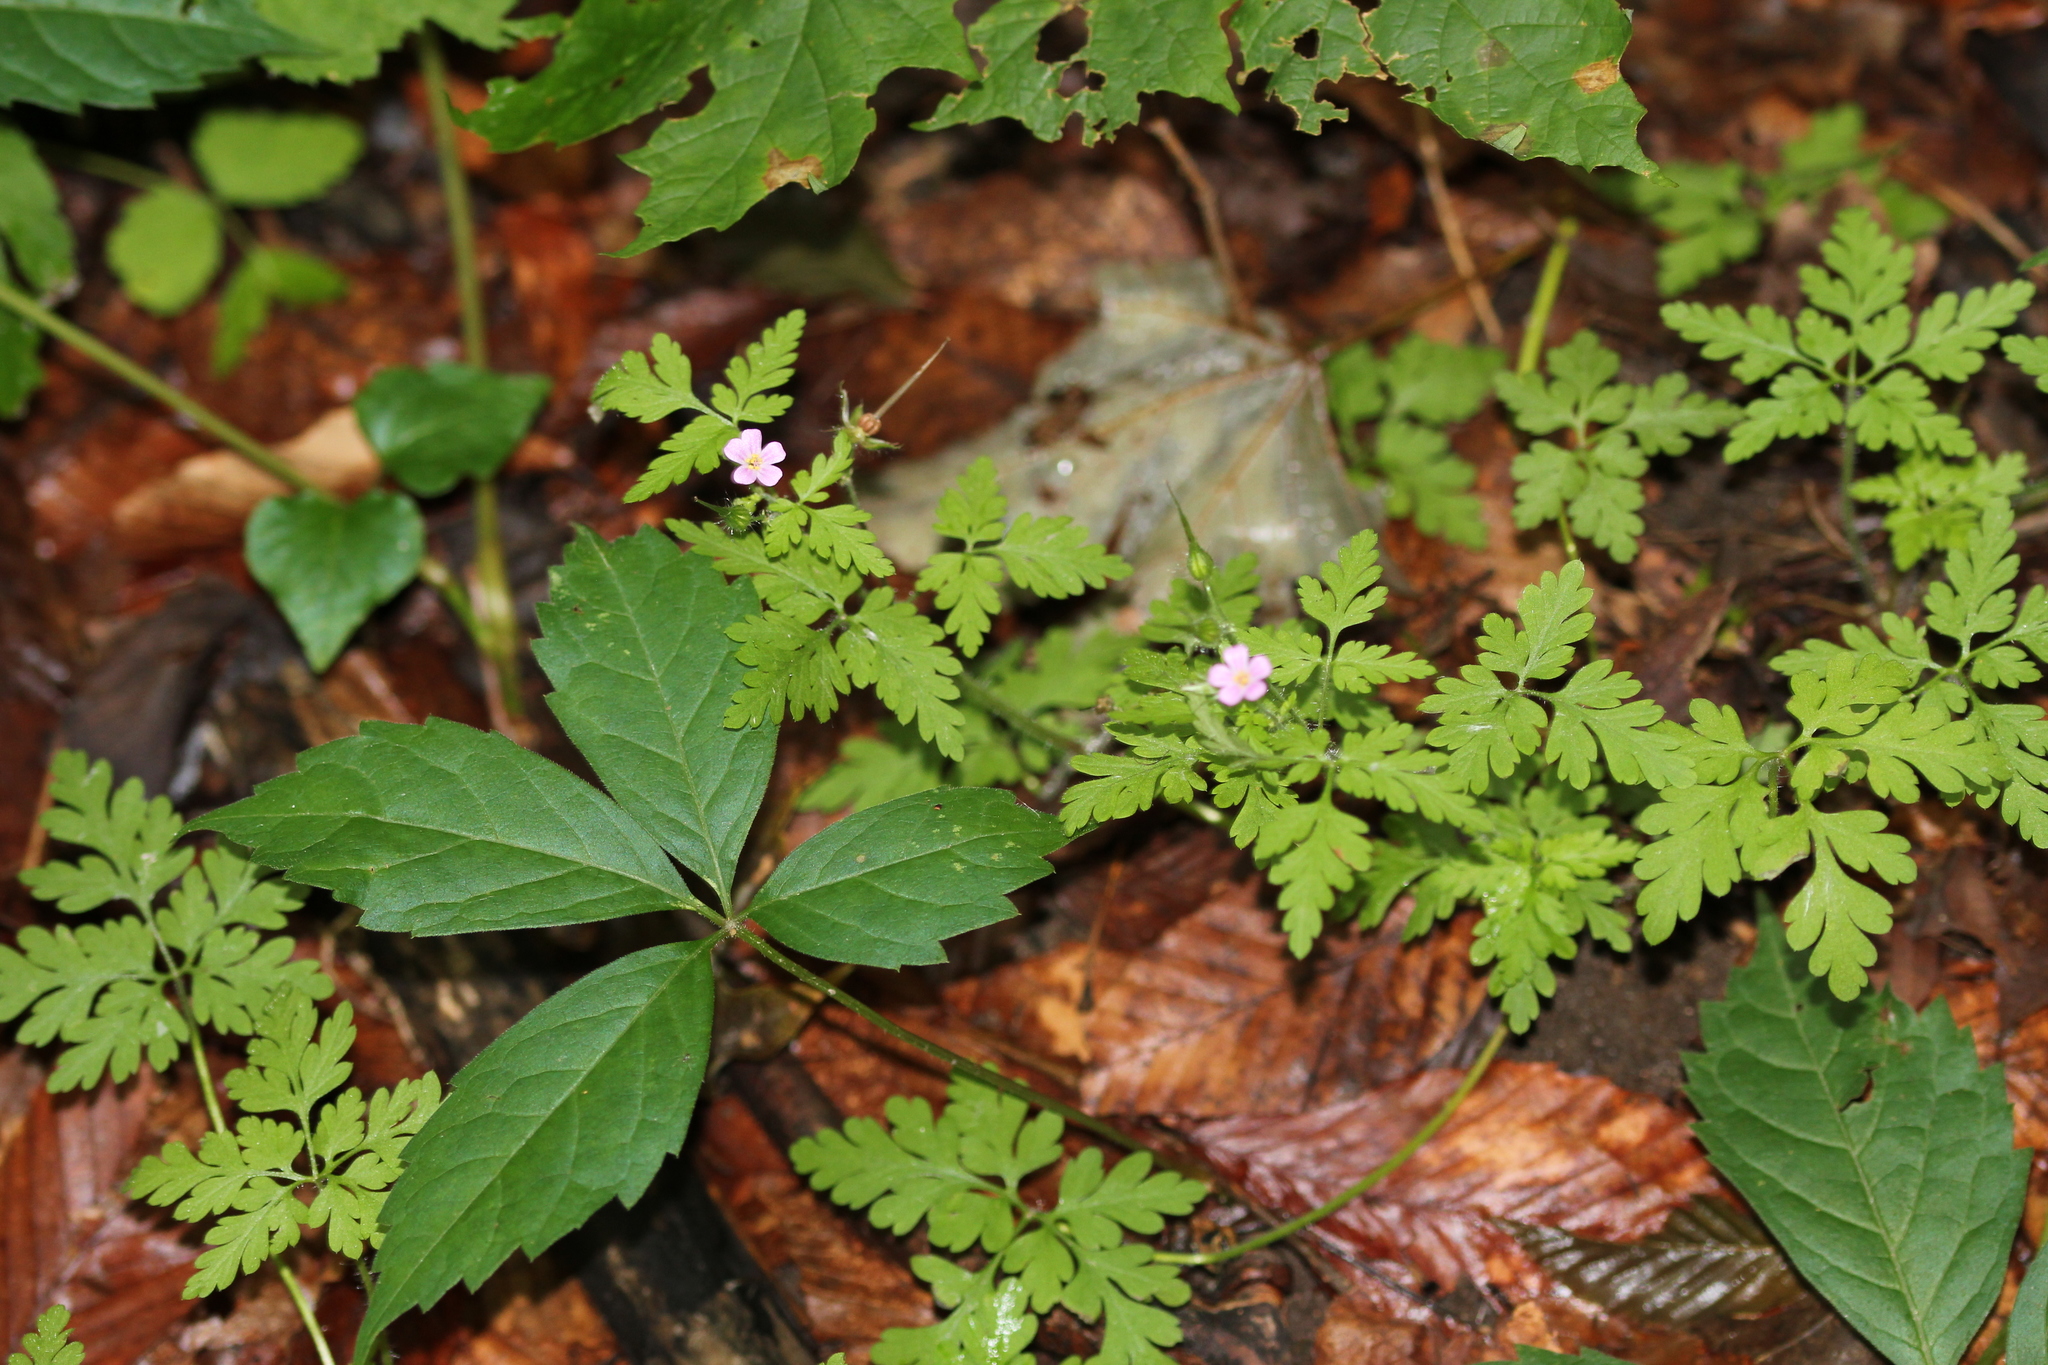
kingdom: Plantae
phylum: Tracheophyta
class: Magnoliopsida
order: Geraniales
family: Geraniaceae
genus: Geranium
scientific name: Geranium robertianum
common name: Herb-robert
